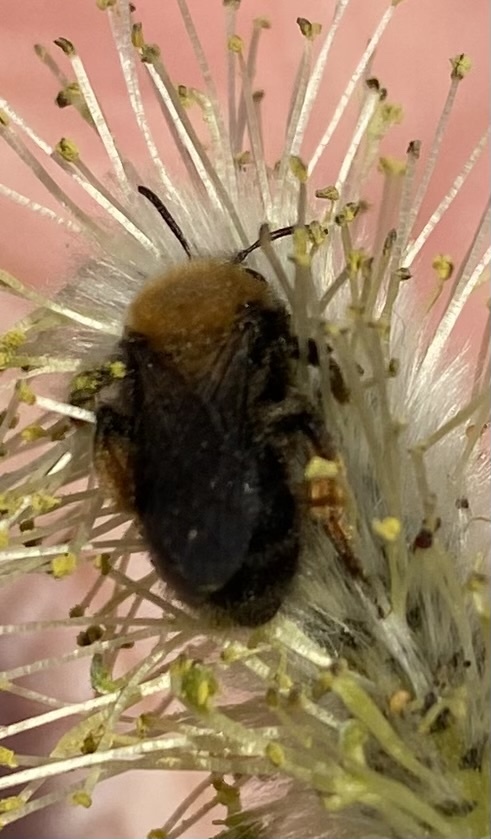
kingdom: Animalia
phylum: Arthropoda
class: Insecta
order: Hymenoptera
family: Andrenidae
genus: Andrena
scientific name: Andrena clarkella
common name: Clarke's mining bee
